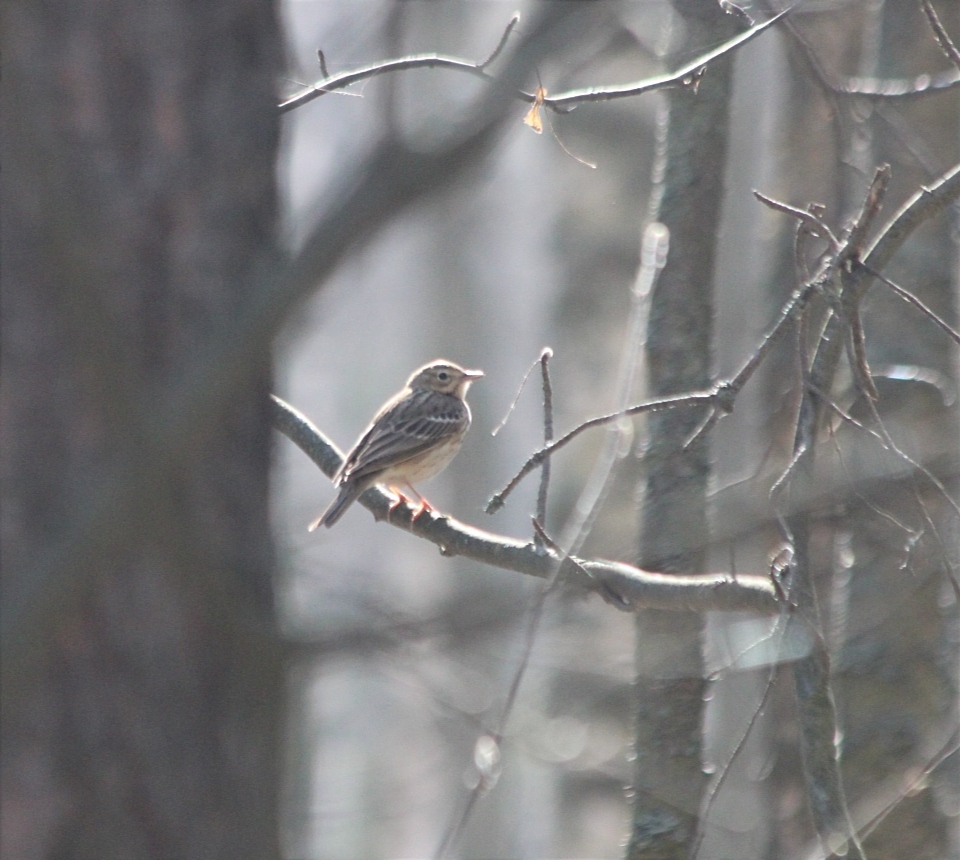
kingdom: Animalia
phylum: Chordata
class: Aves
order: Passeriformes
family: Motacillidae
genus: Anthus
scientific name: Anthus trivialis
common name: Tree pipit
